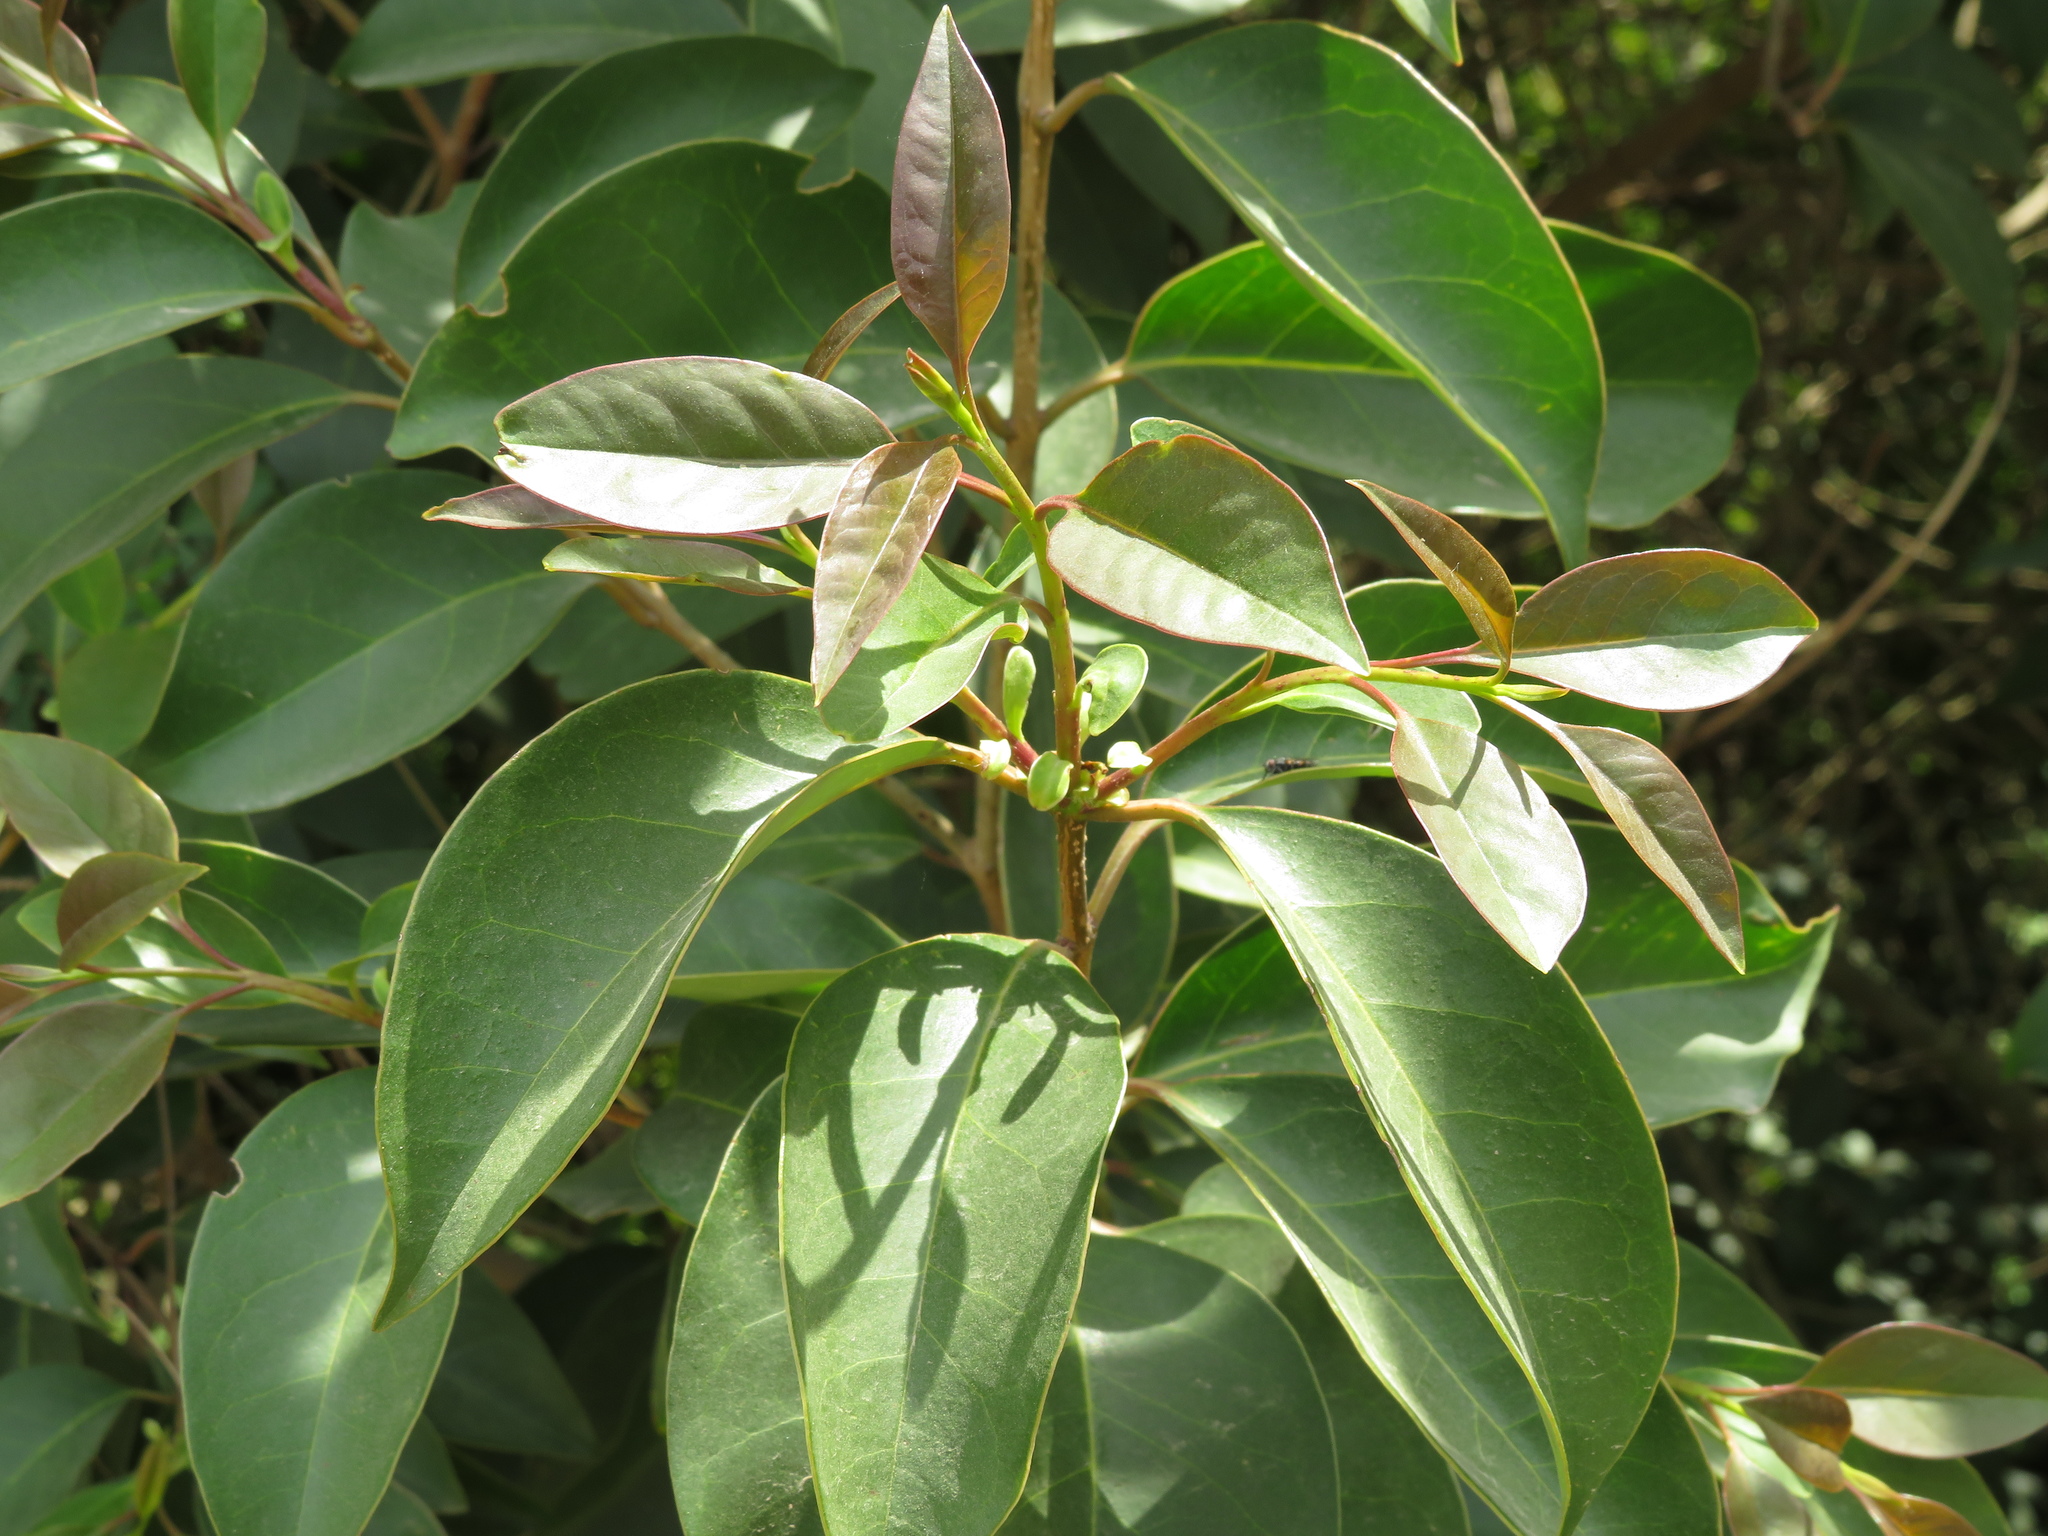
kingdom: Plantae
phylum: Tracheophyta
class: Magnoliopsida
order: Rosales
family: Moraceae
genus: Ficus
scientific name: Ficus luschnathiana
